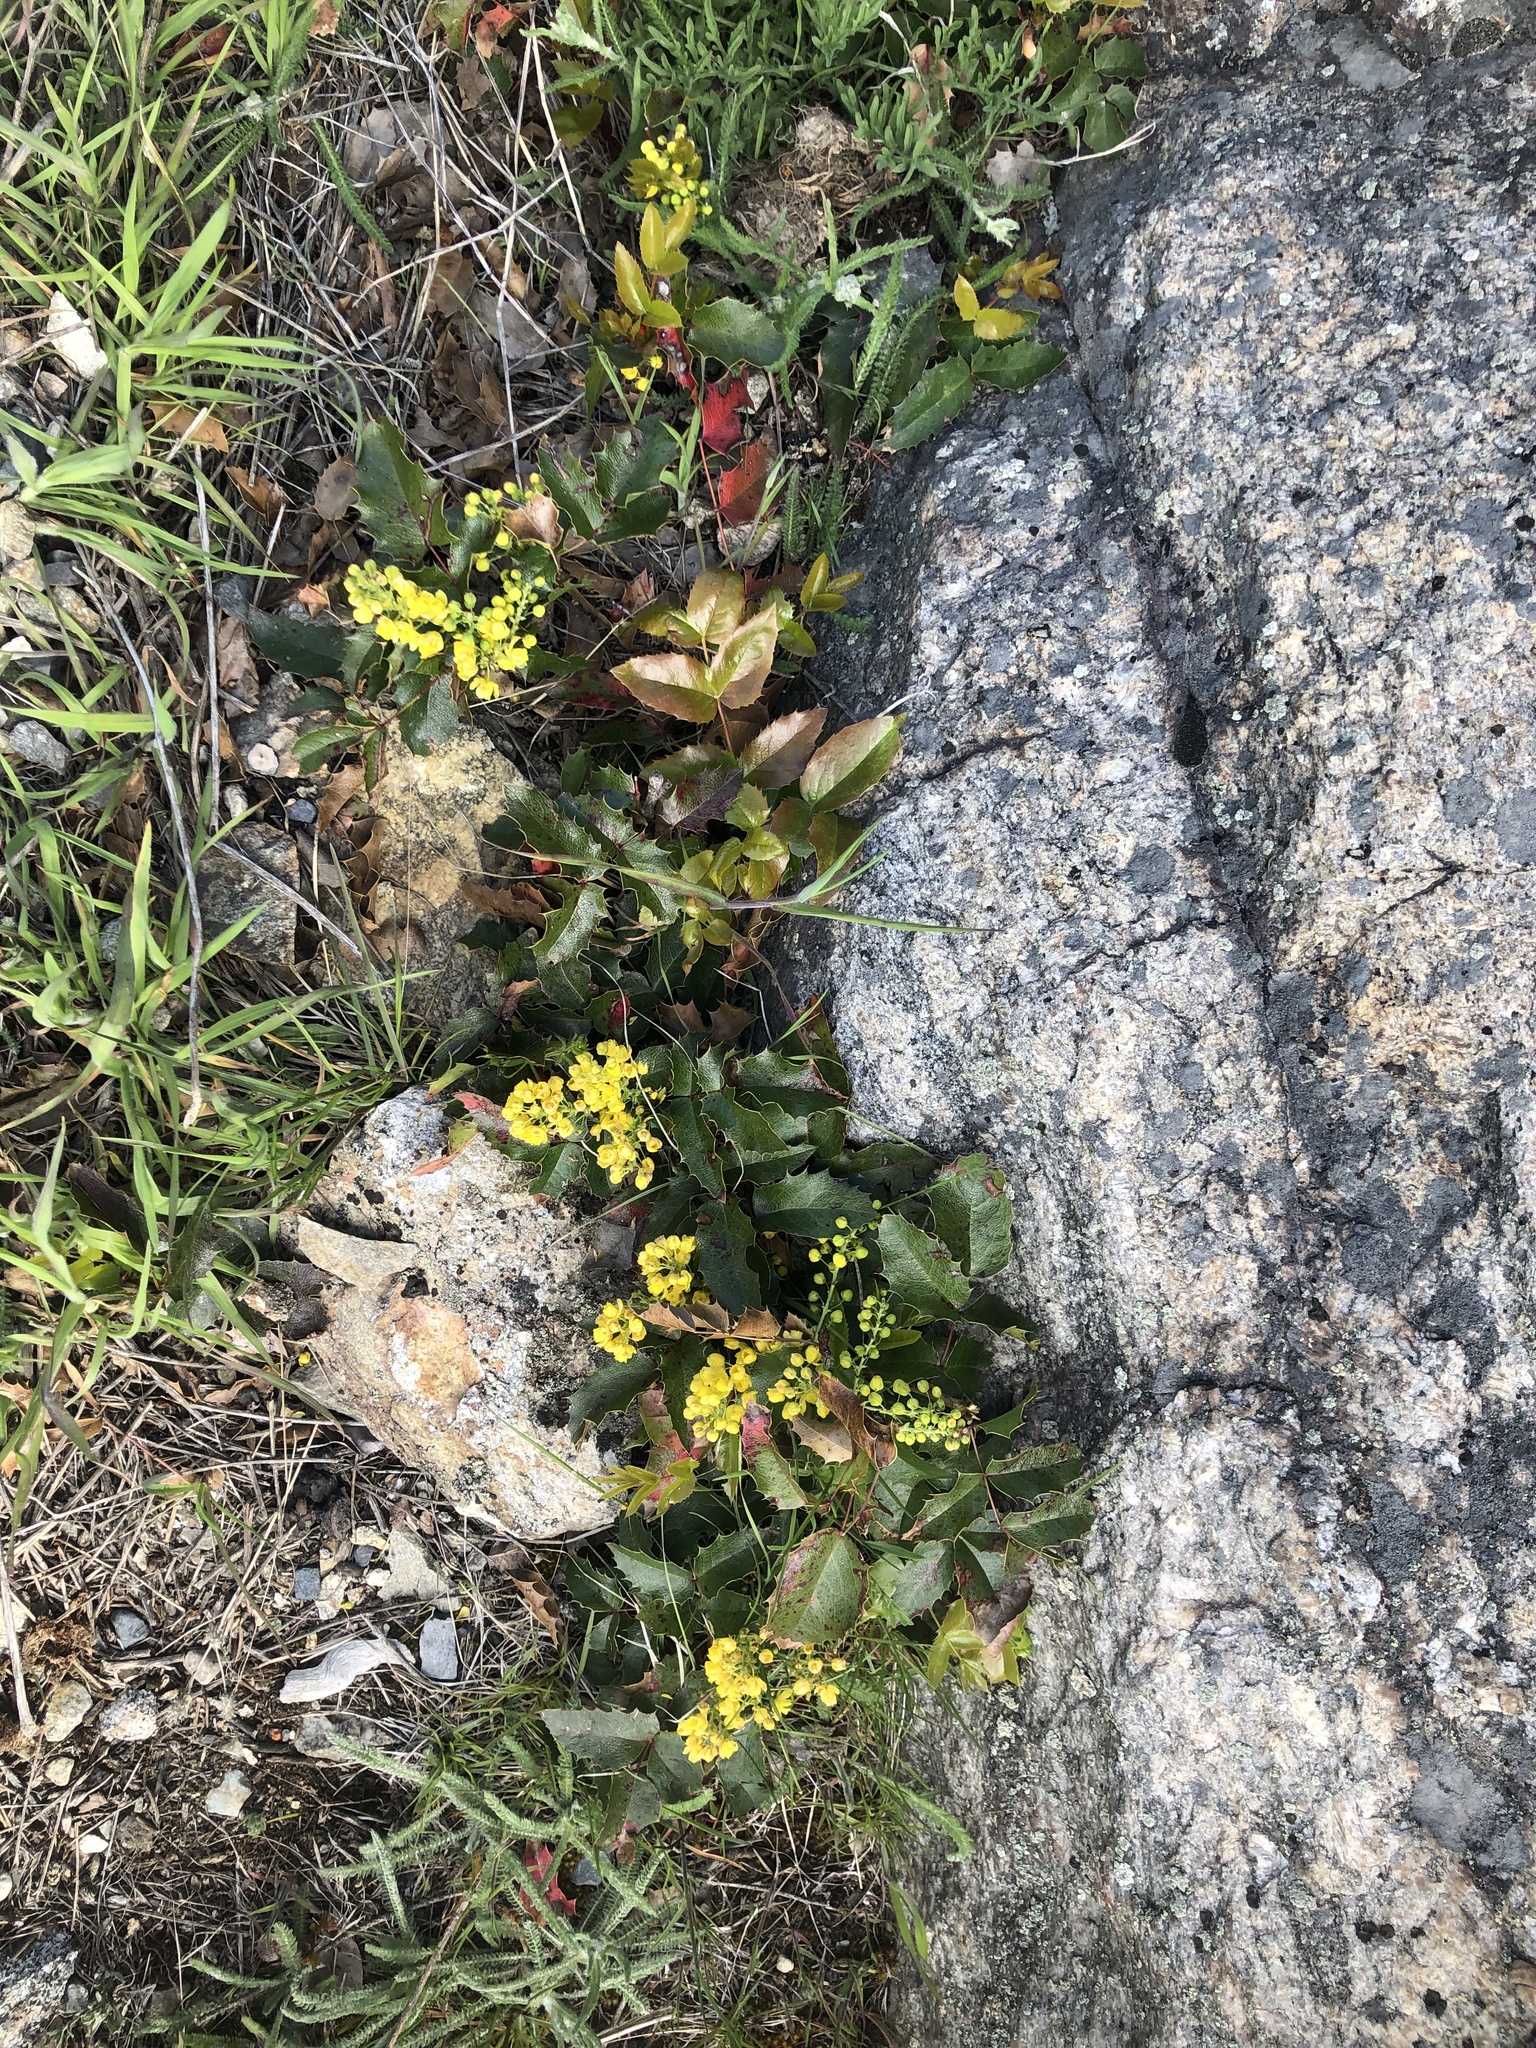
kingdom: Plantae
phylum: Tracheophyta
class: Magnoliopsida
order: Ranunculales
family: Berberidaceae
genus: Mahonia
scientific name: Mahonia aquifolium
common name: Oregon-grape
